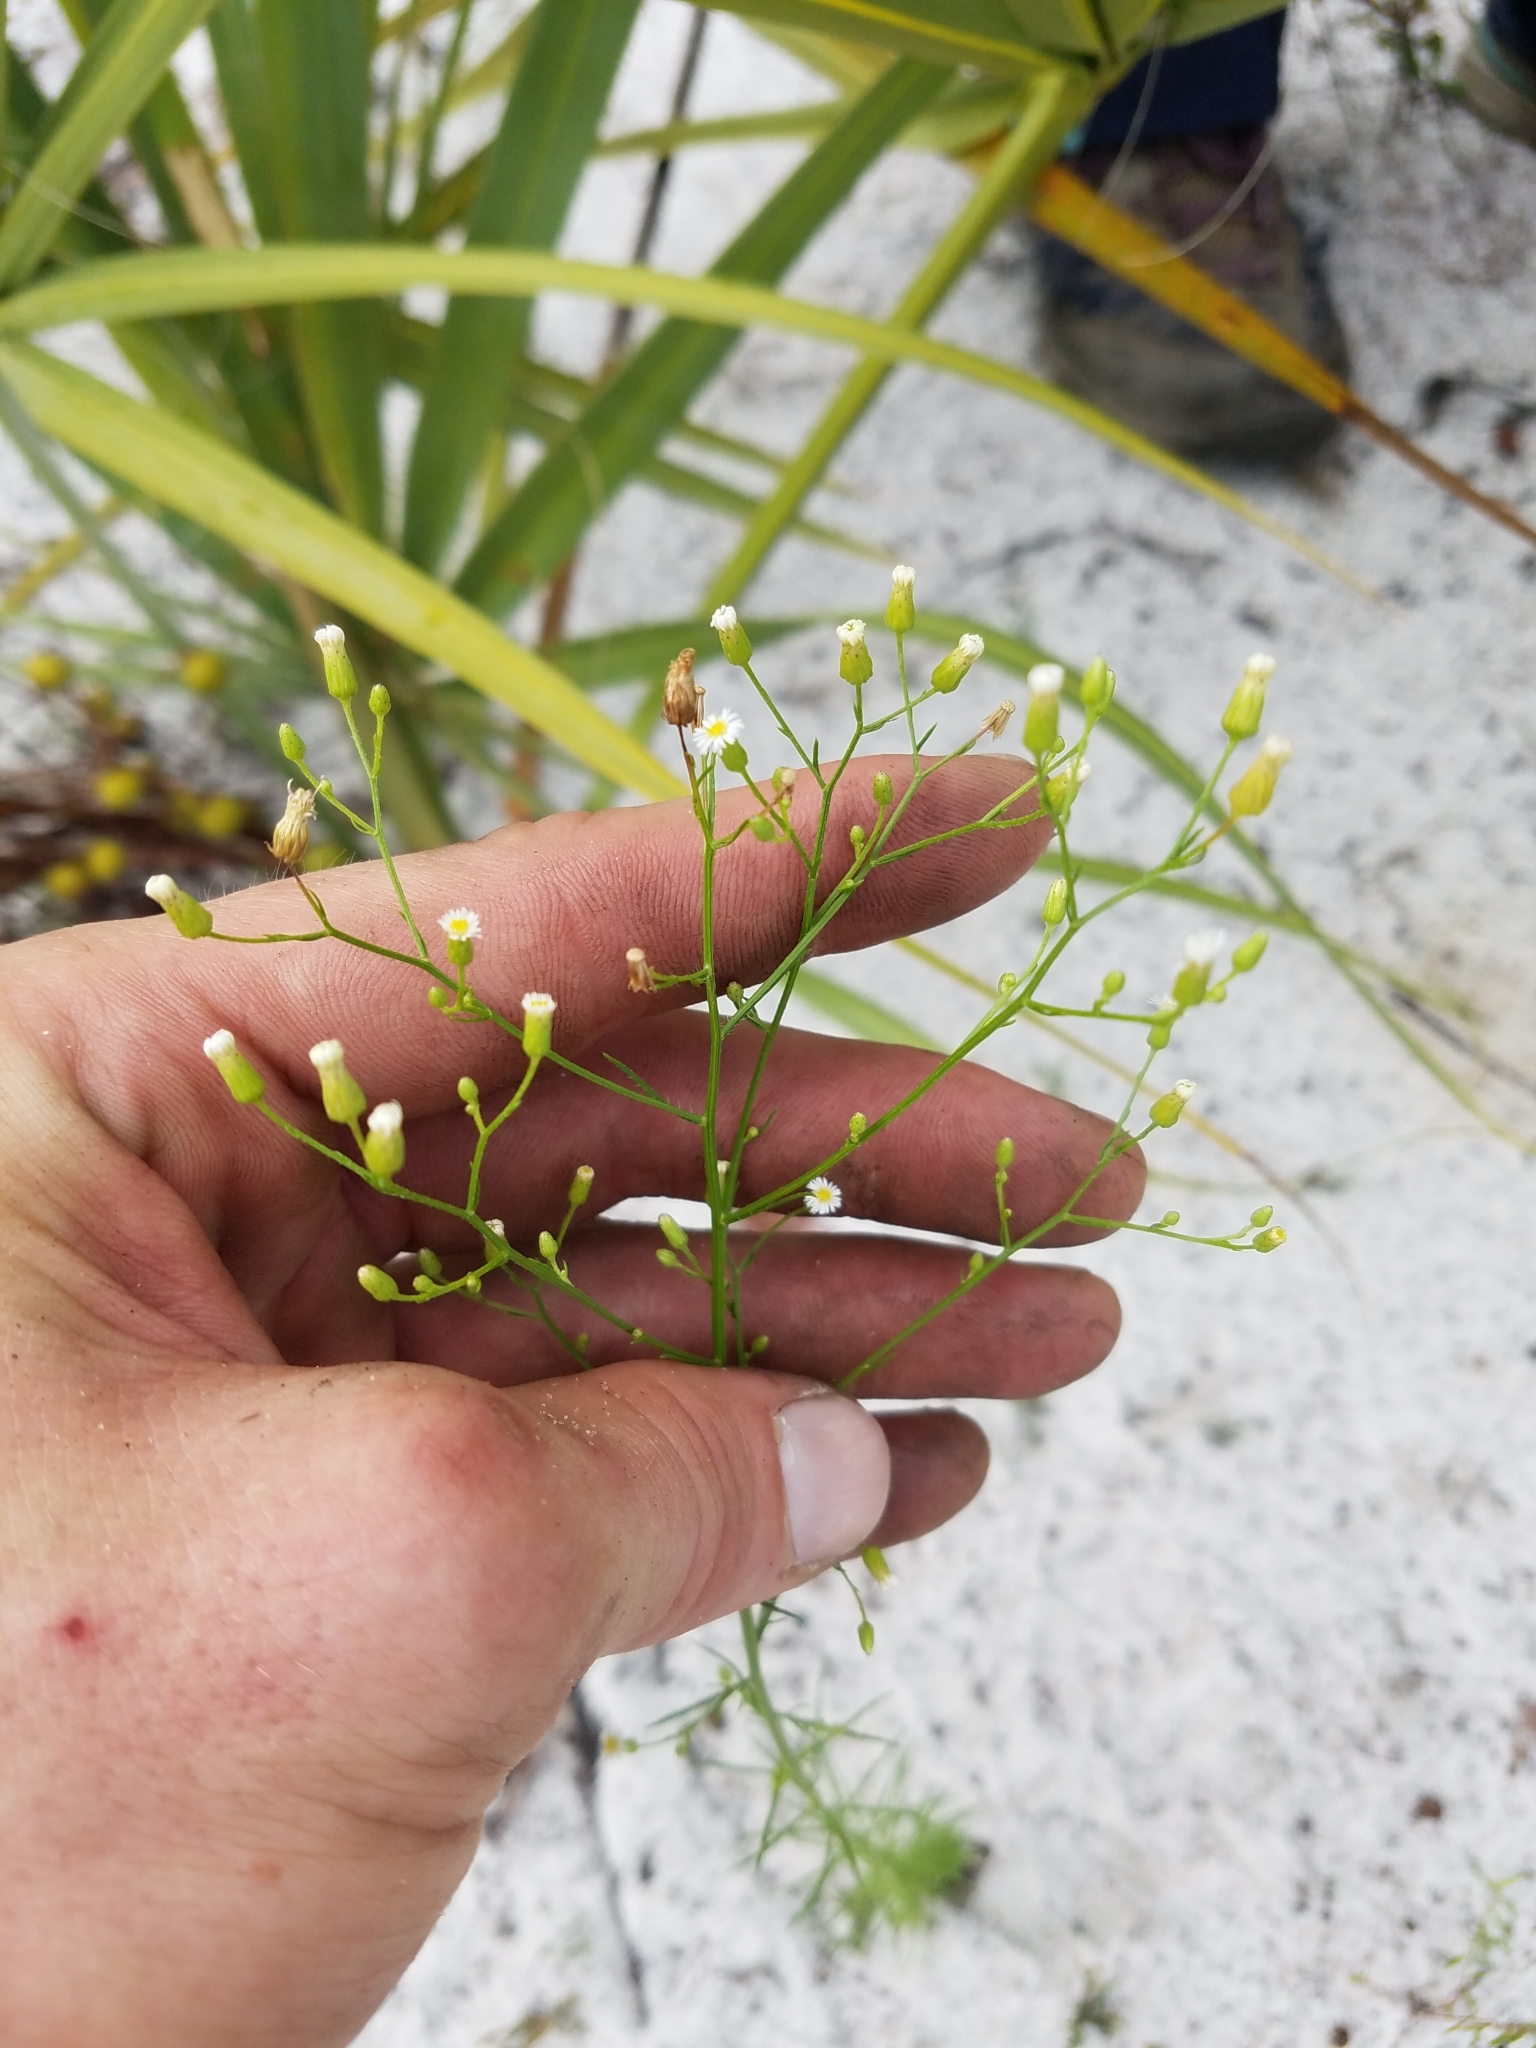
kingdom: Plantae
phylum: Tracheophyta
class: Magnoliopsida
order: Asterales
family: Asteraceae
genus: Erigeron
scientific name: Erigeron canadensis
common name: Canadian fleabane
